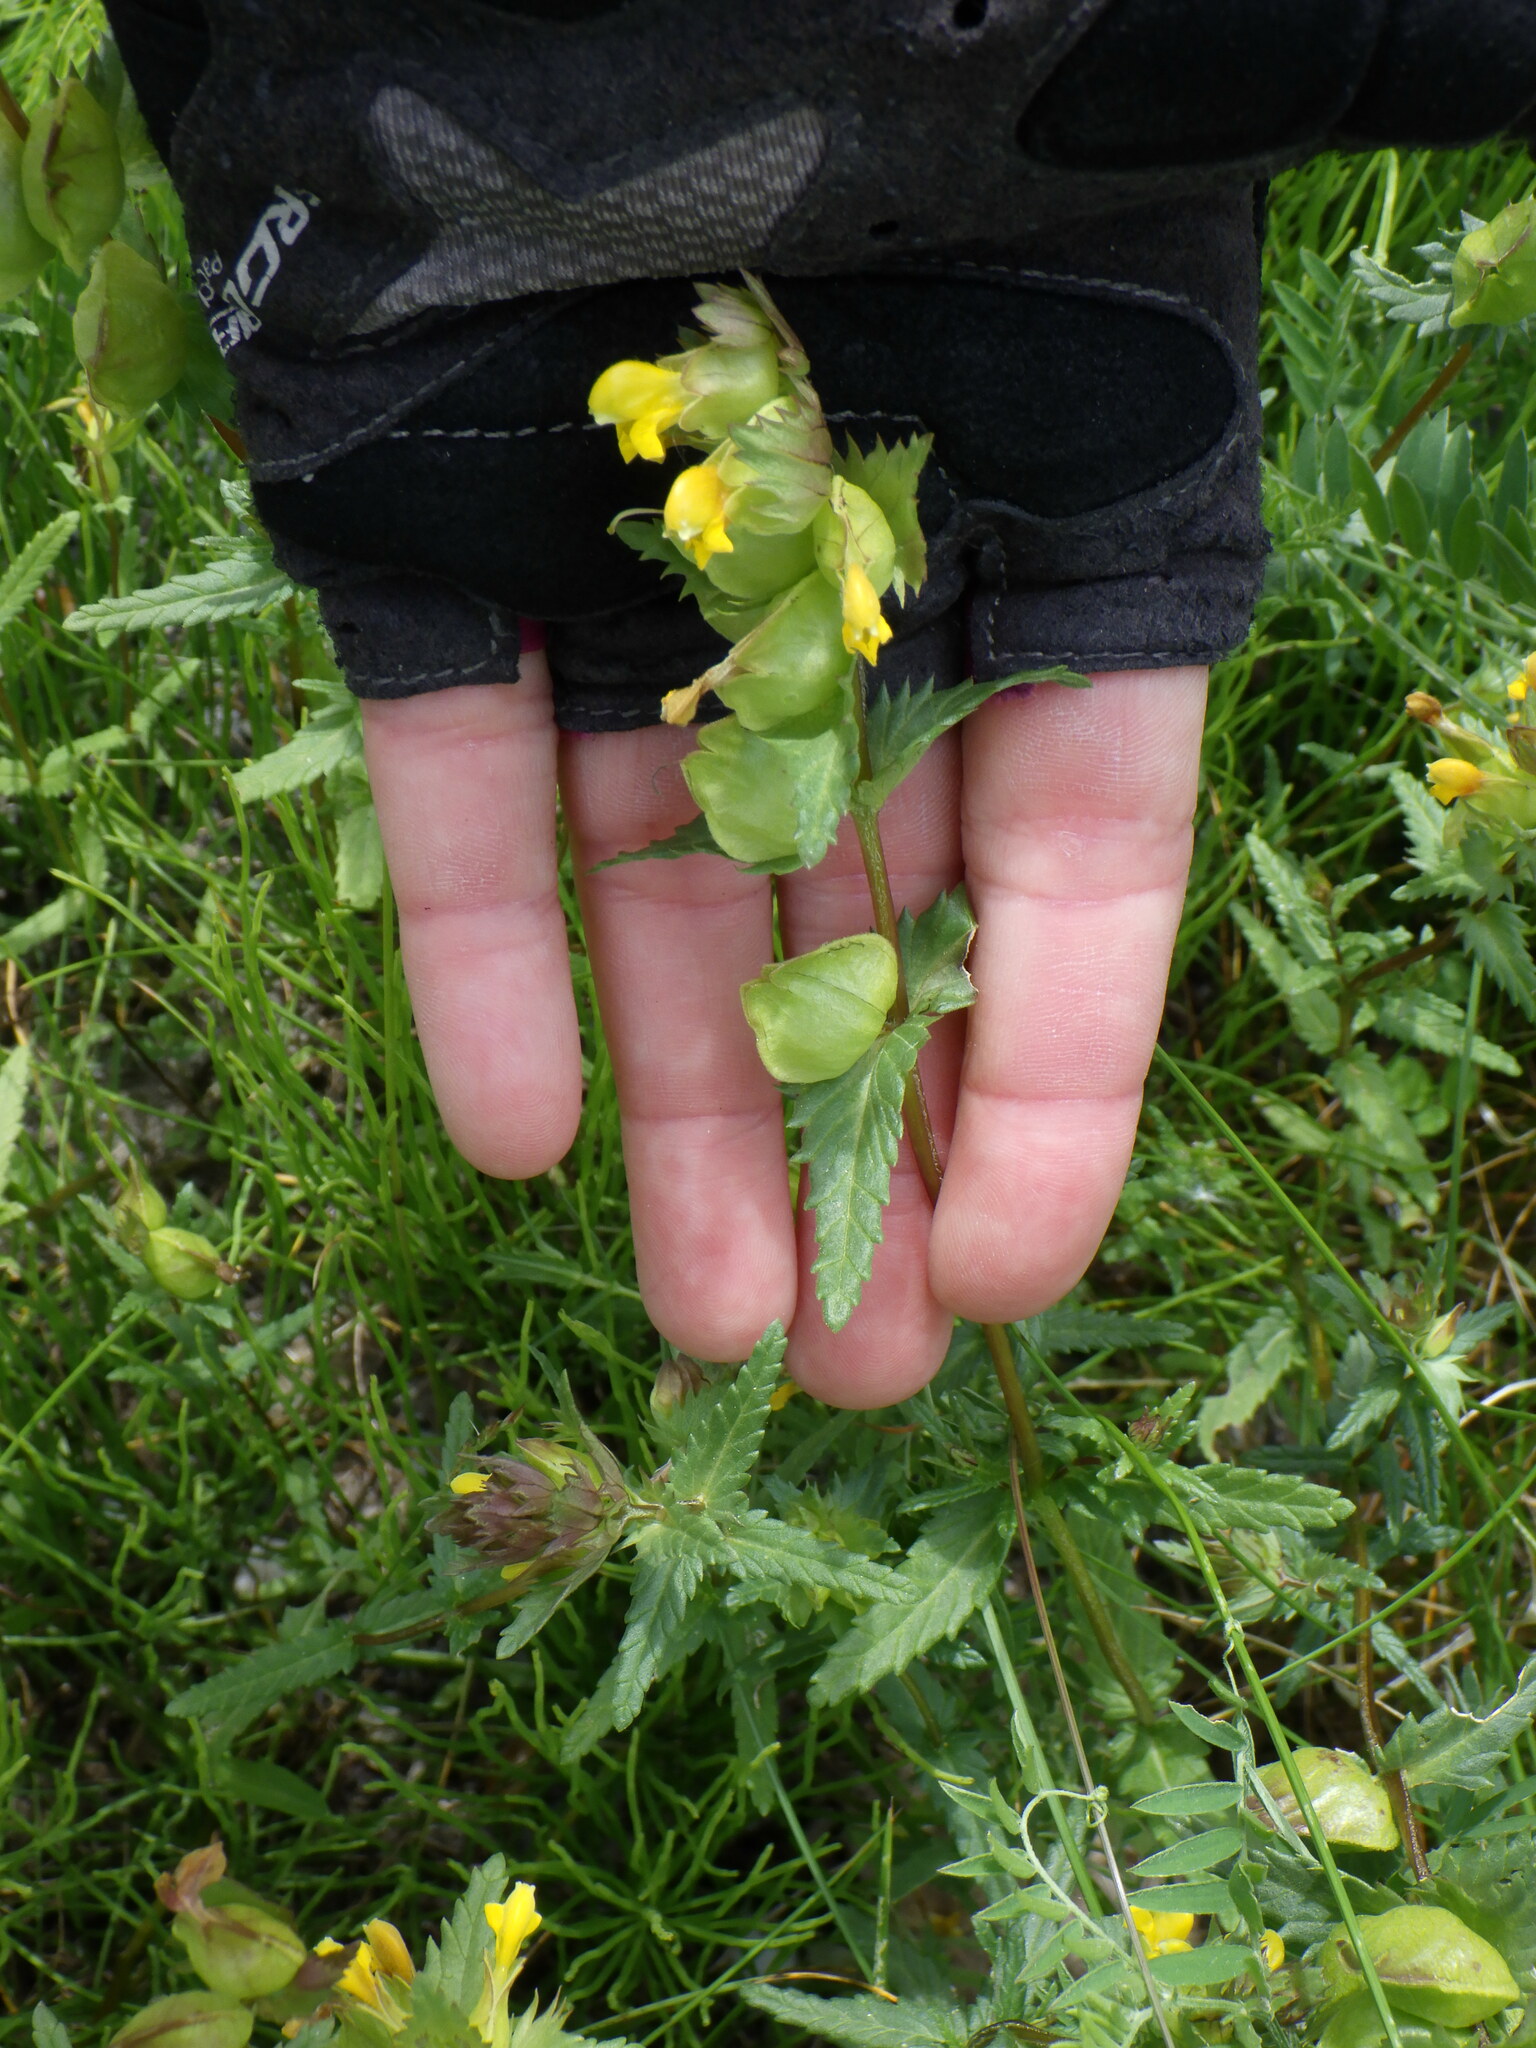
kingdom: Plantae
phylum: Tracheophyta
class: Magnoliopsida
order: Lamiales
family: Orobanchaceae
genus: Rhinanthus
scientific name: Rhinanthus groenlandicus
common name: Little yellow rattle
